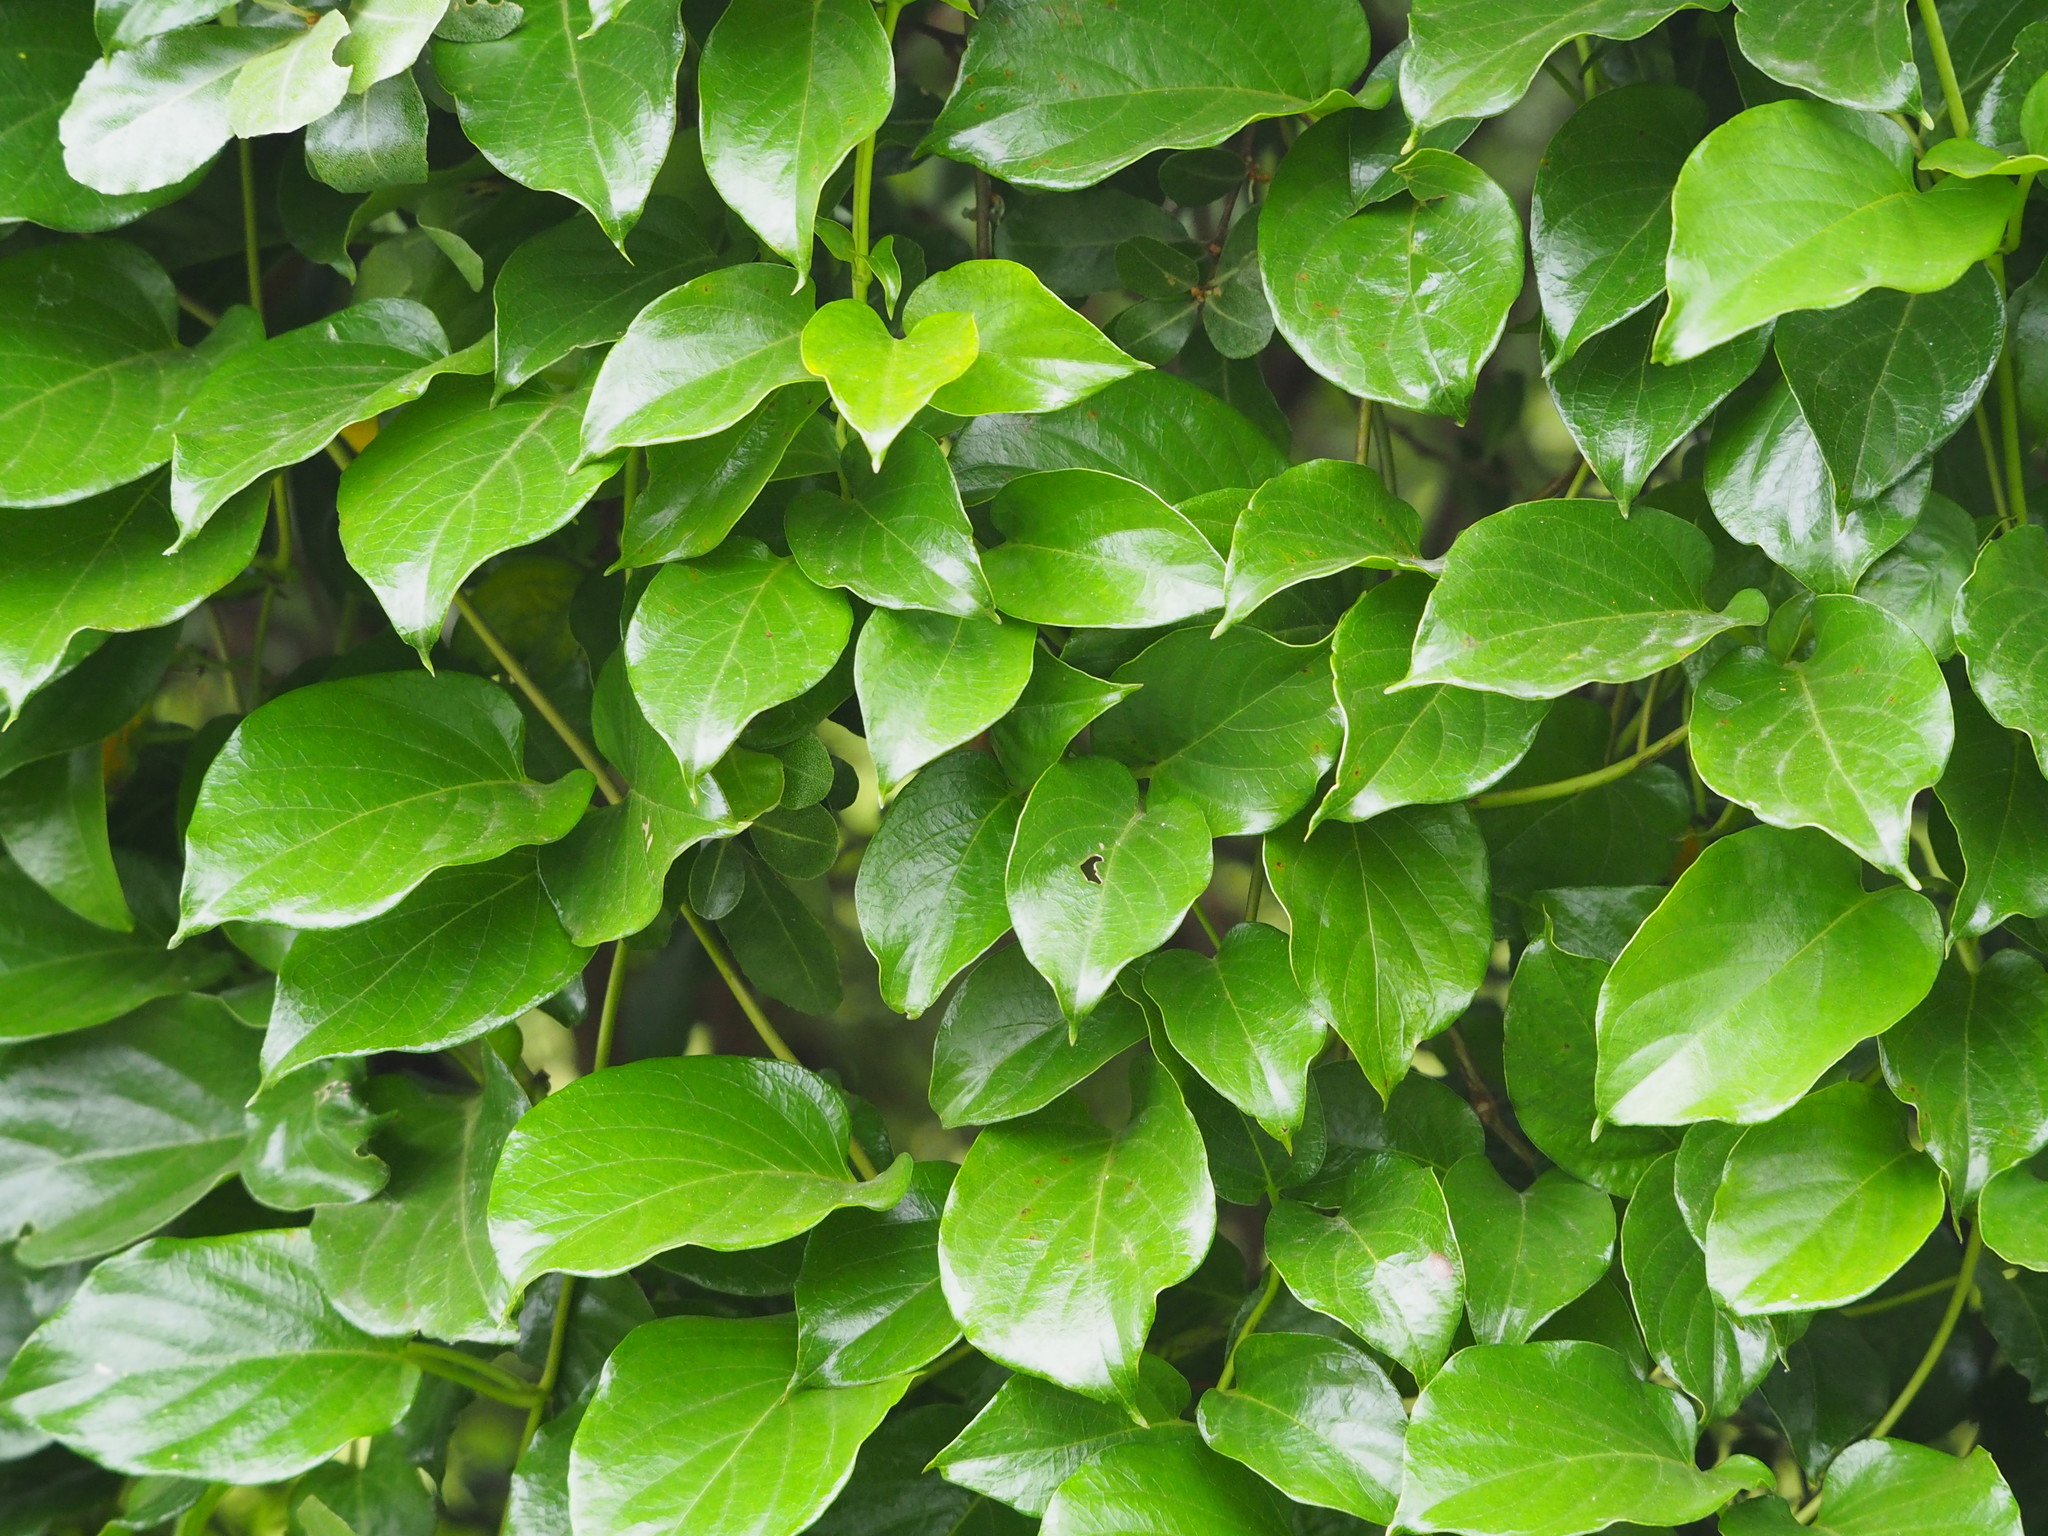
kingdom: Plantae
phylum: Tracheophyta
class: Magnoliopsida
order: Gentianales
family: Rubiaceae
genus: Paederia
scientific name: Paederia foetida
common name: Stinkvine
